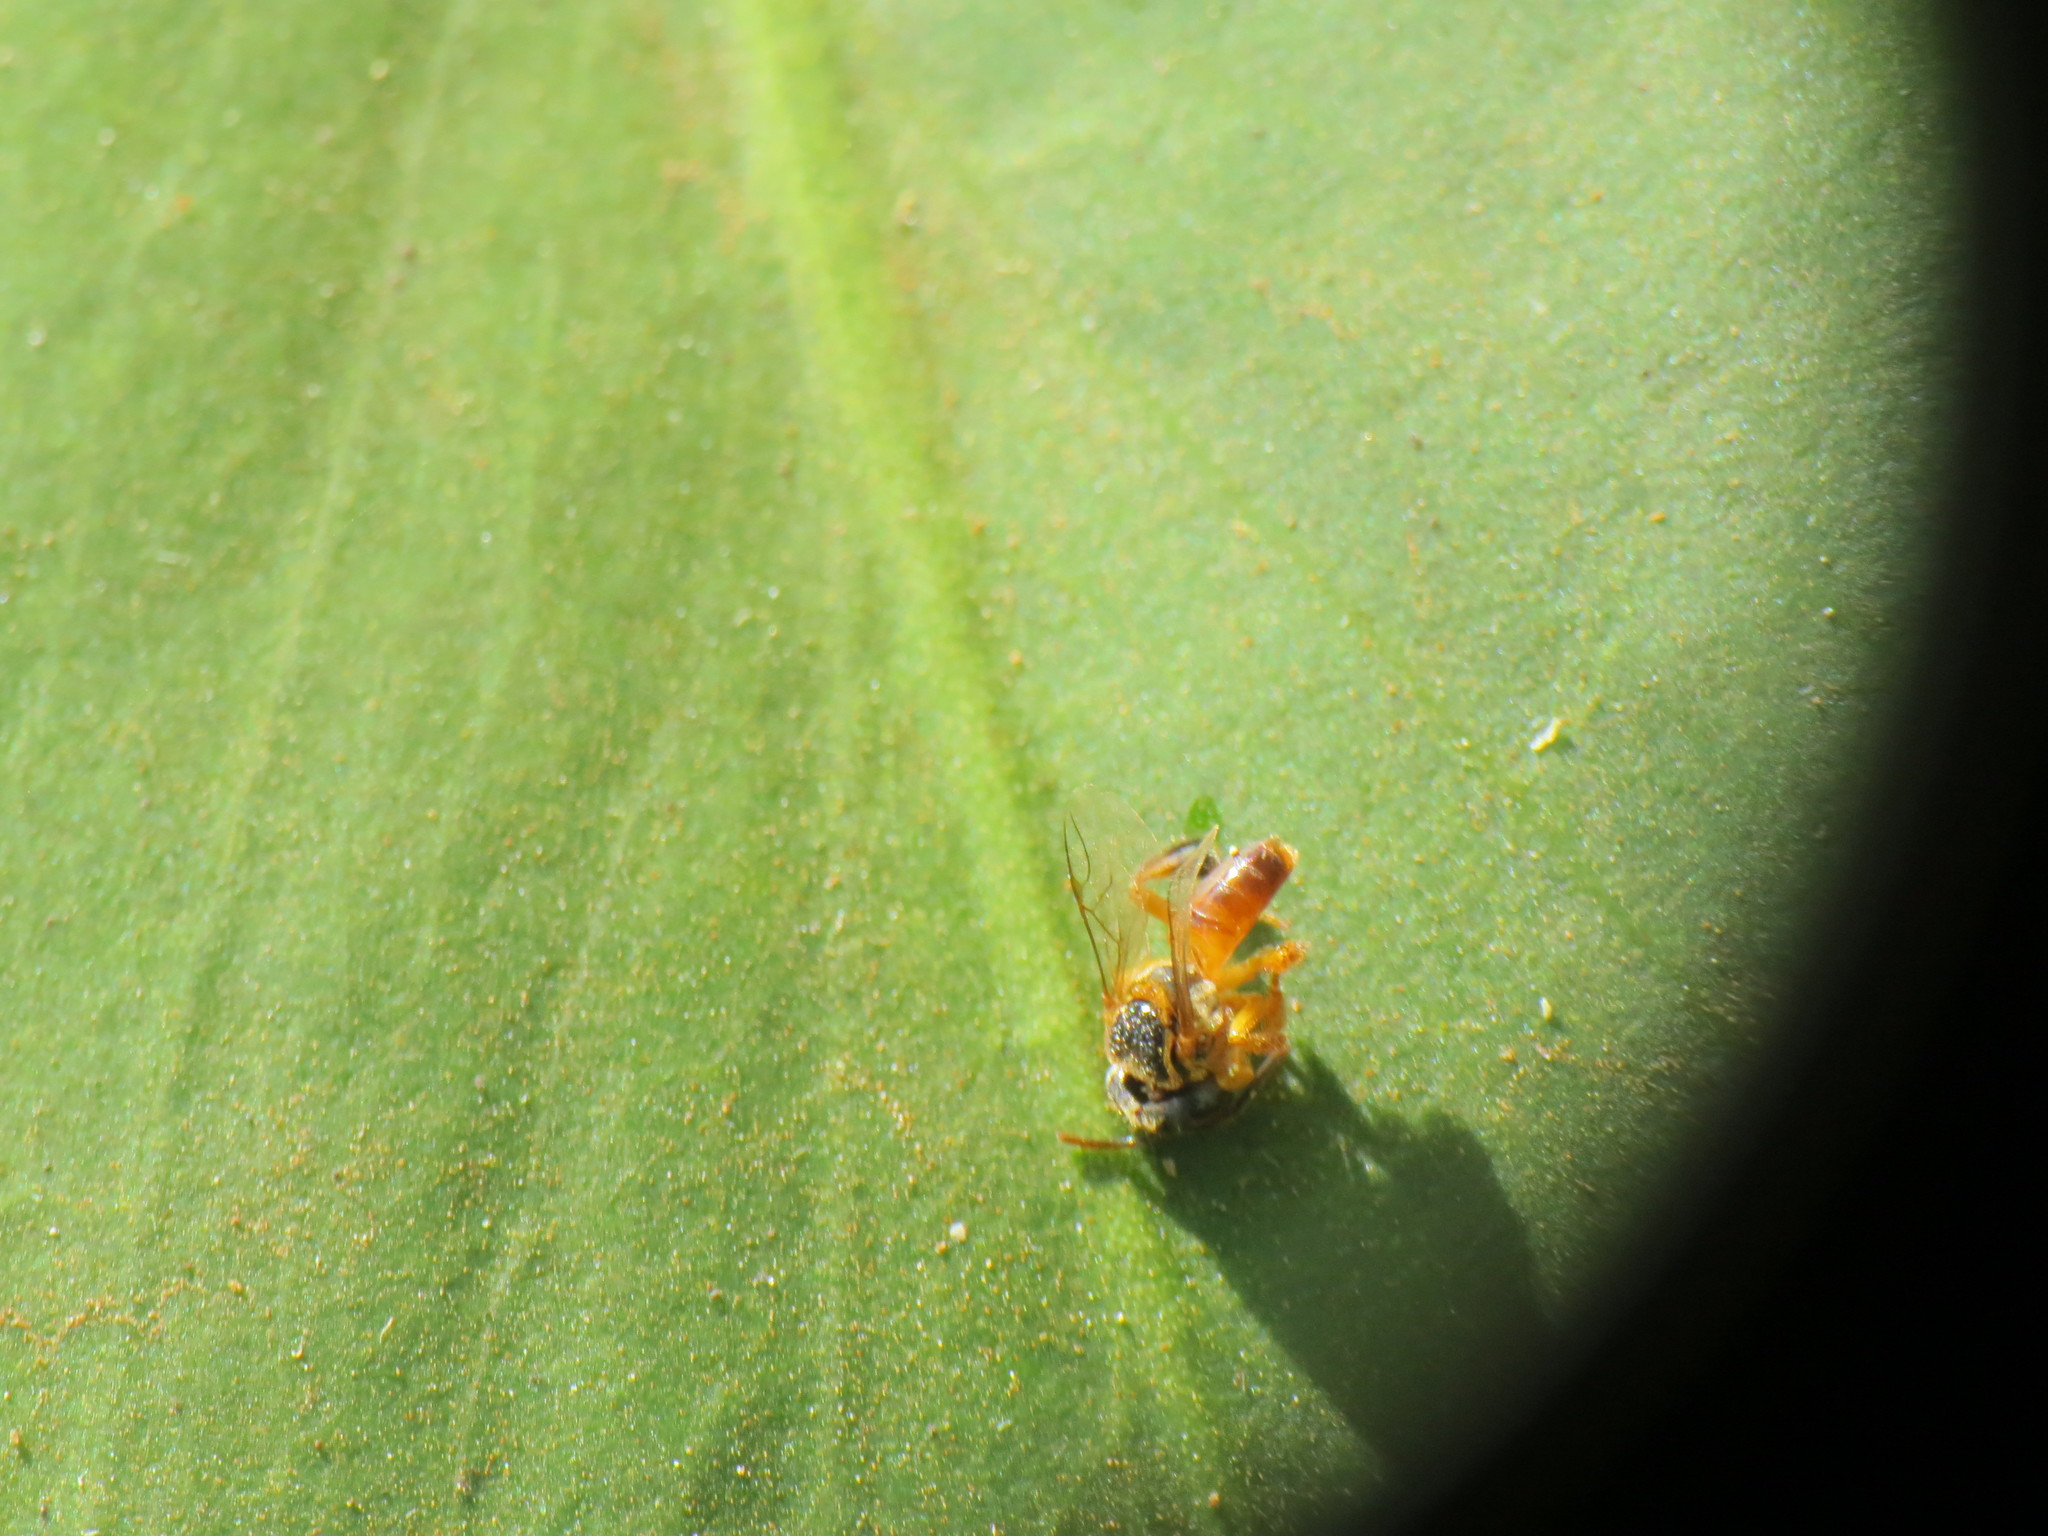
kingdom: Animalia
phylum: Arthropoda
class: Insecta
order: Hymenoptera
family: Apidae
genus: Tetragonisca
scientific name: Tetragonisca fiebrigi
